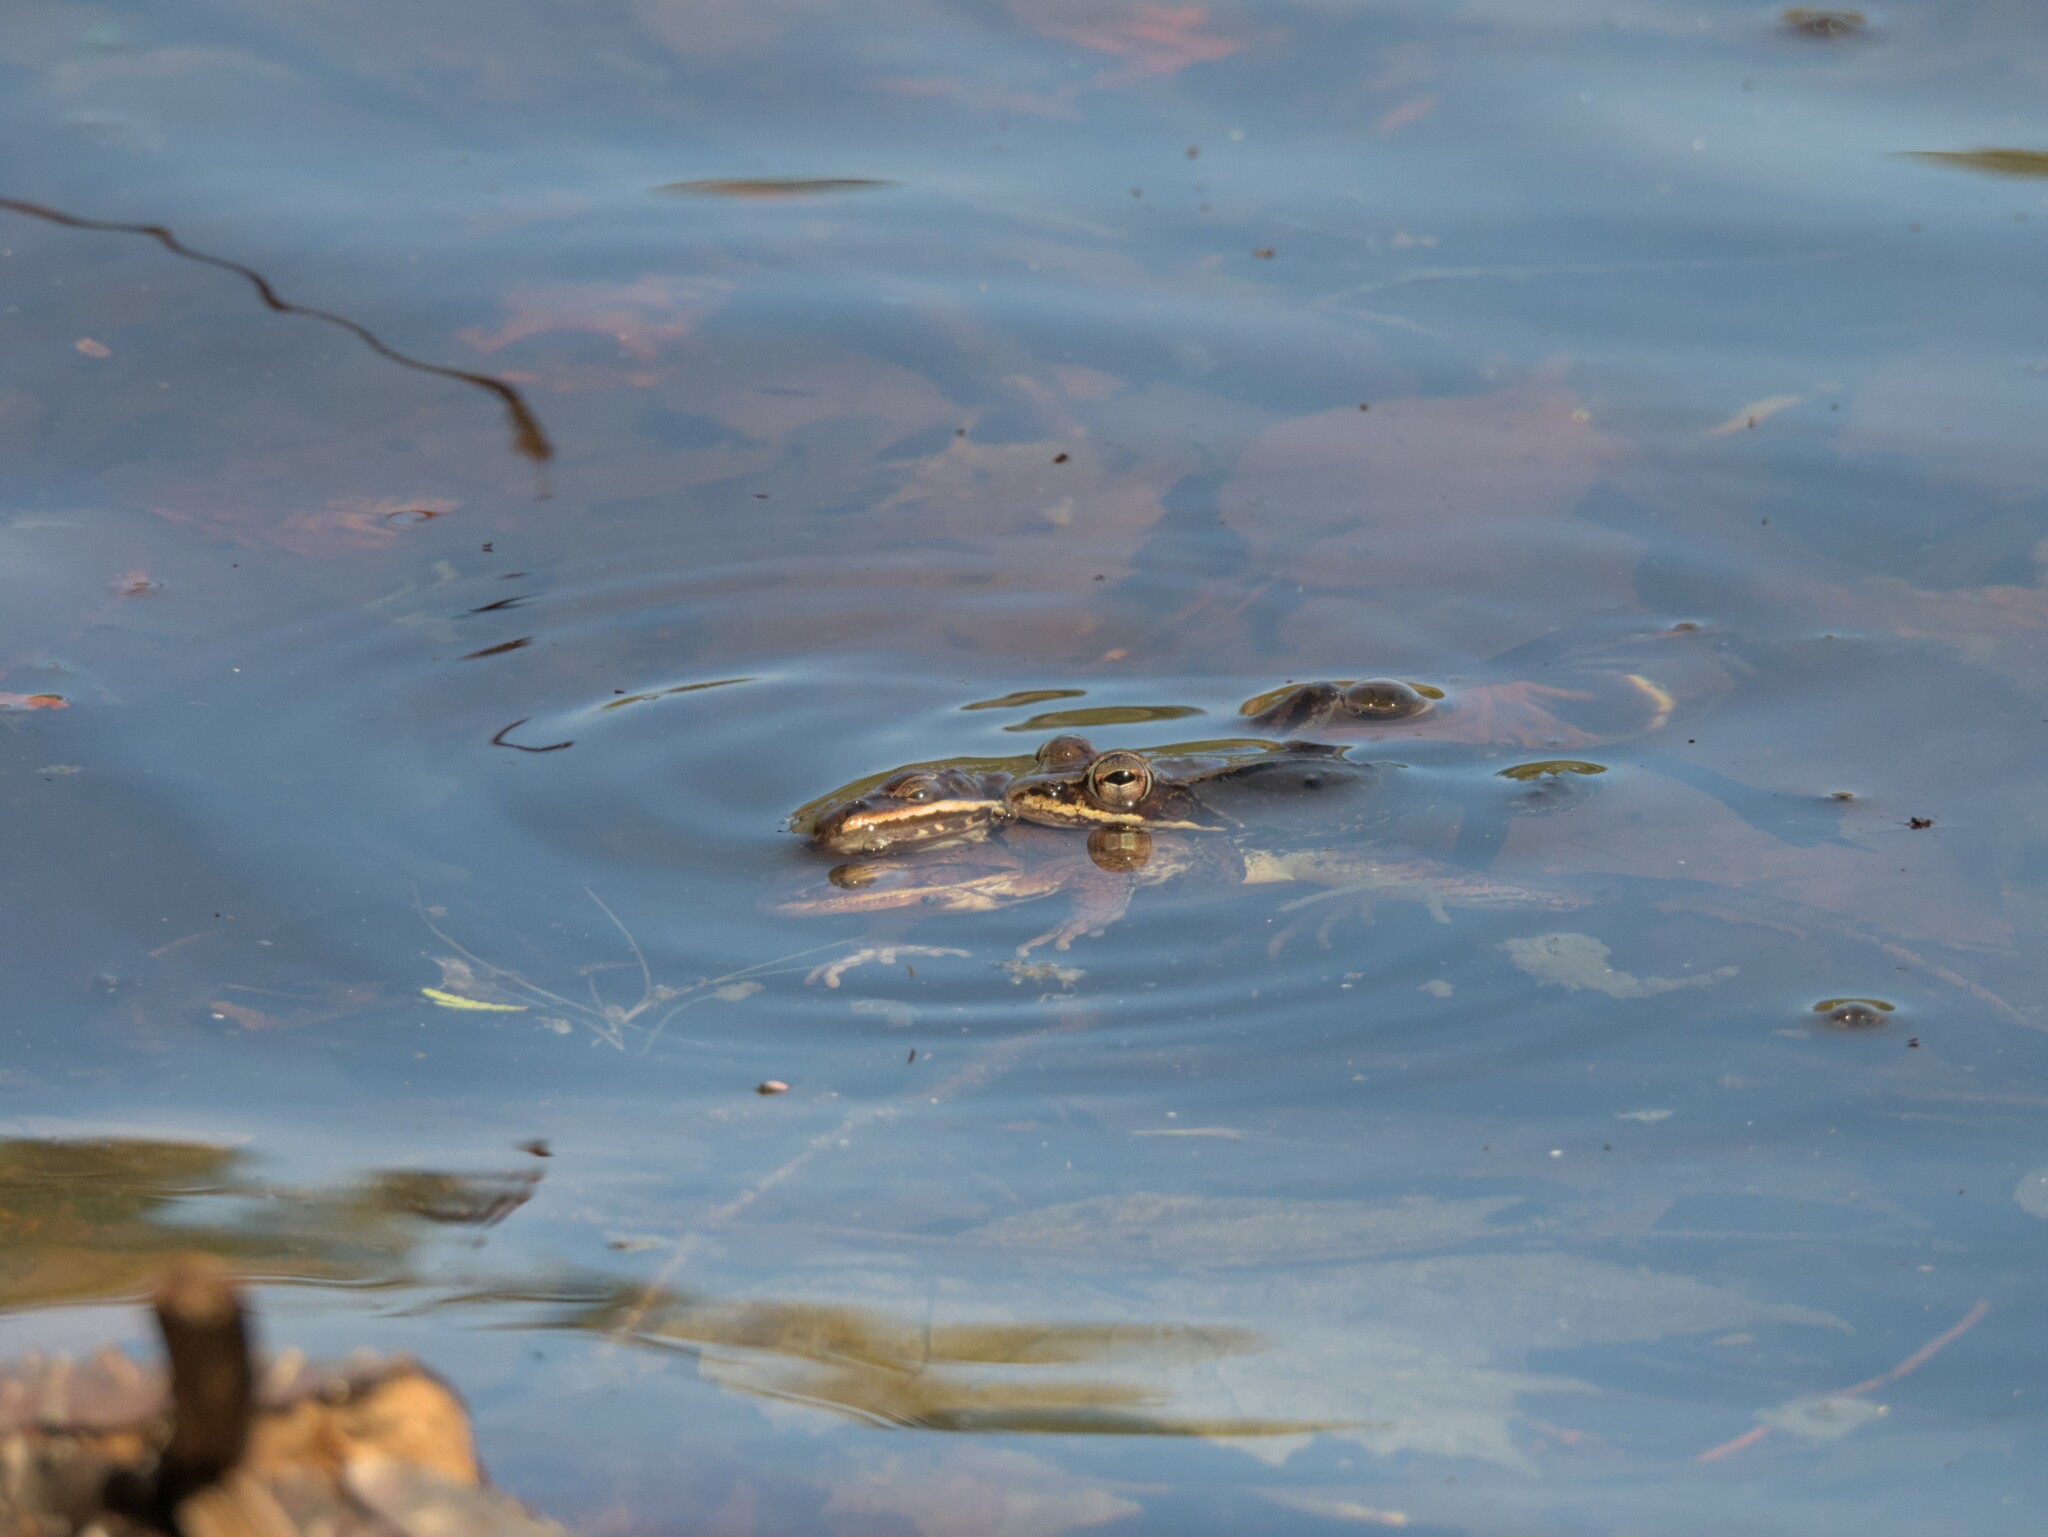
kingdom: Animalia
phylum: Chordata
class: Amphibia
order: Anura
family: Ranidae
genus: Lithobates
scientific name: Lithobates sylvaticus
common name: Wood frog
